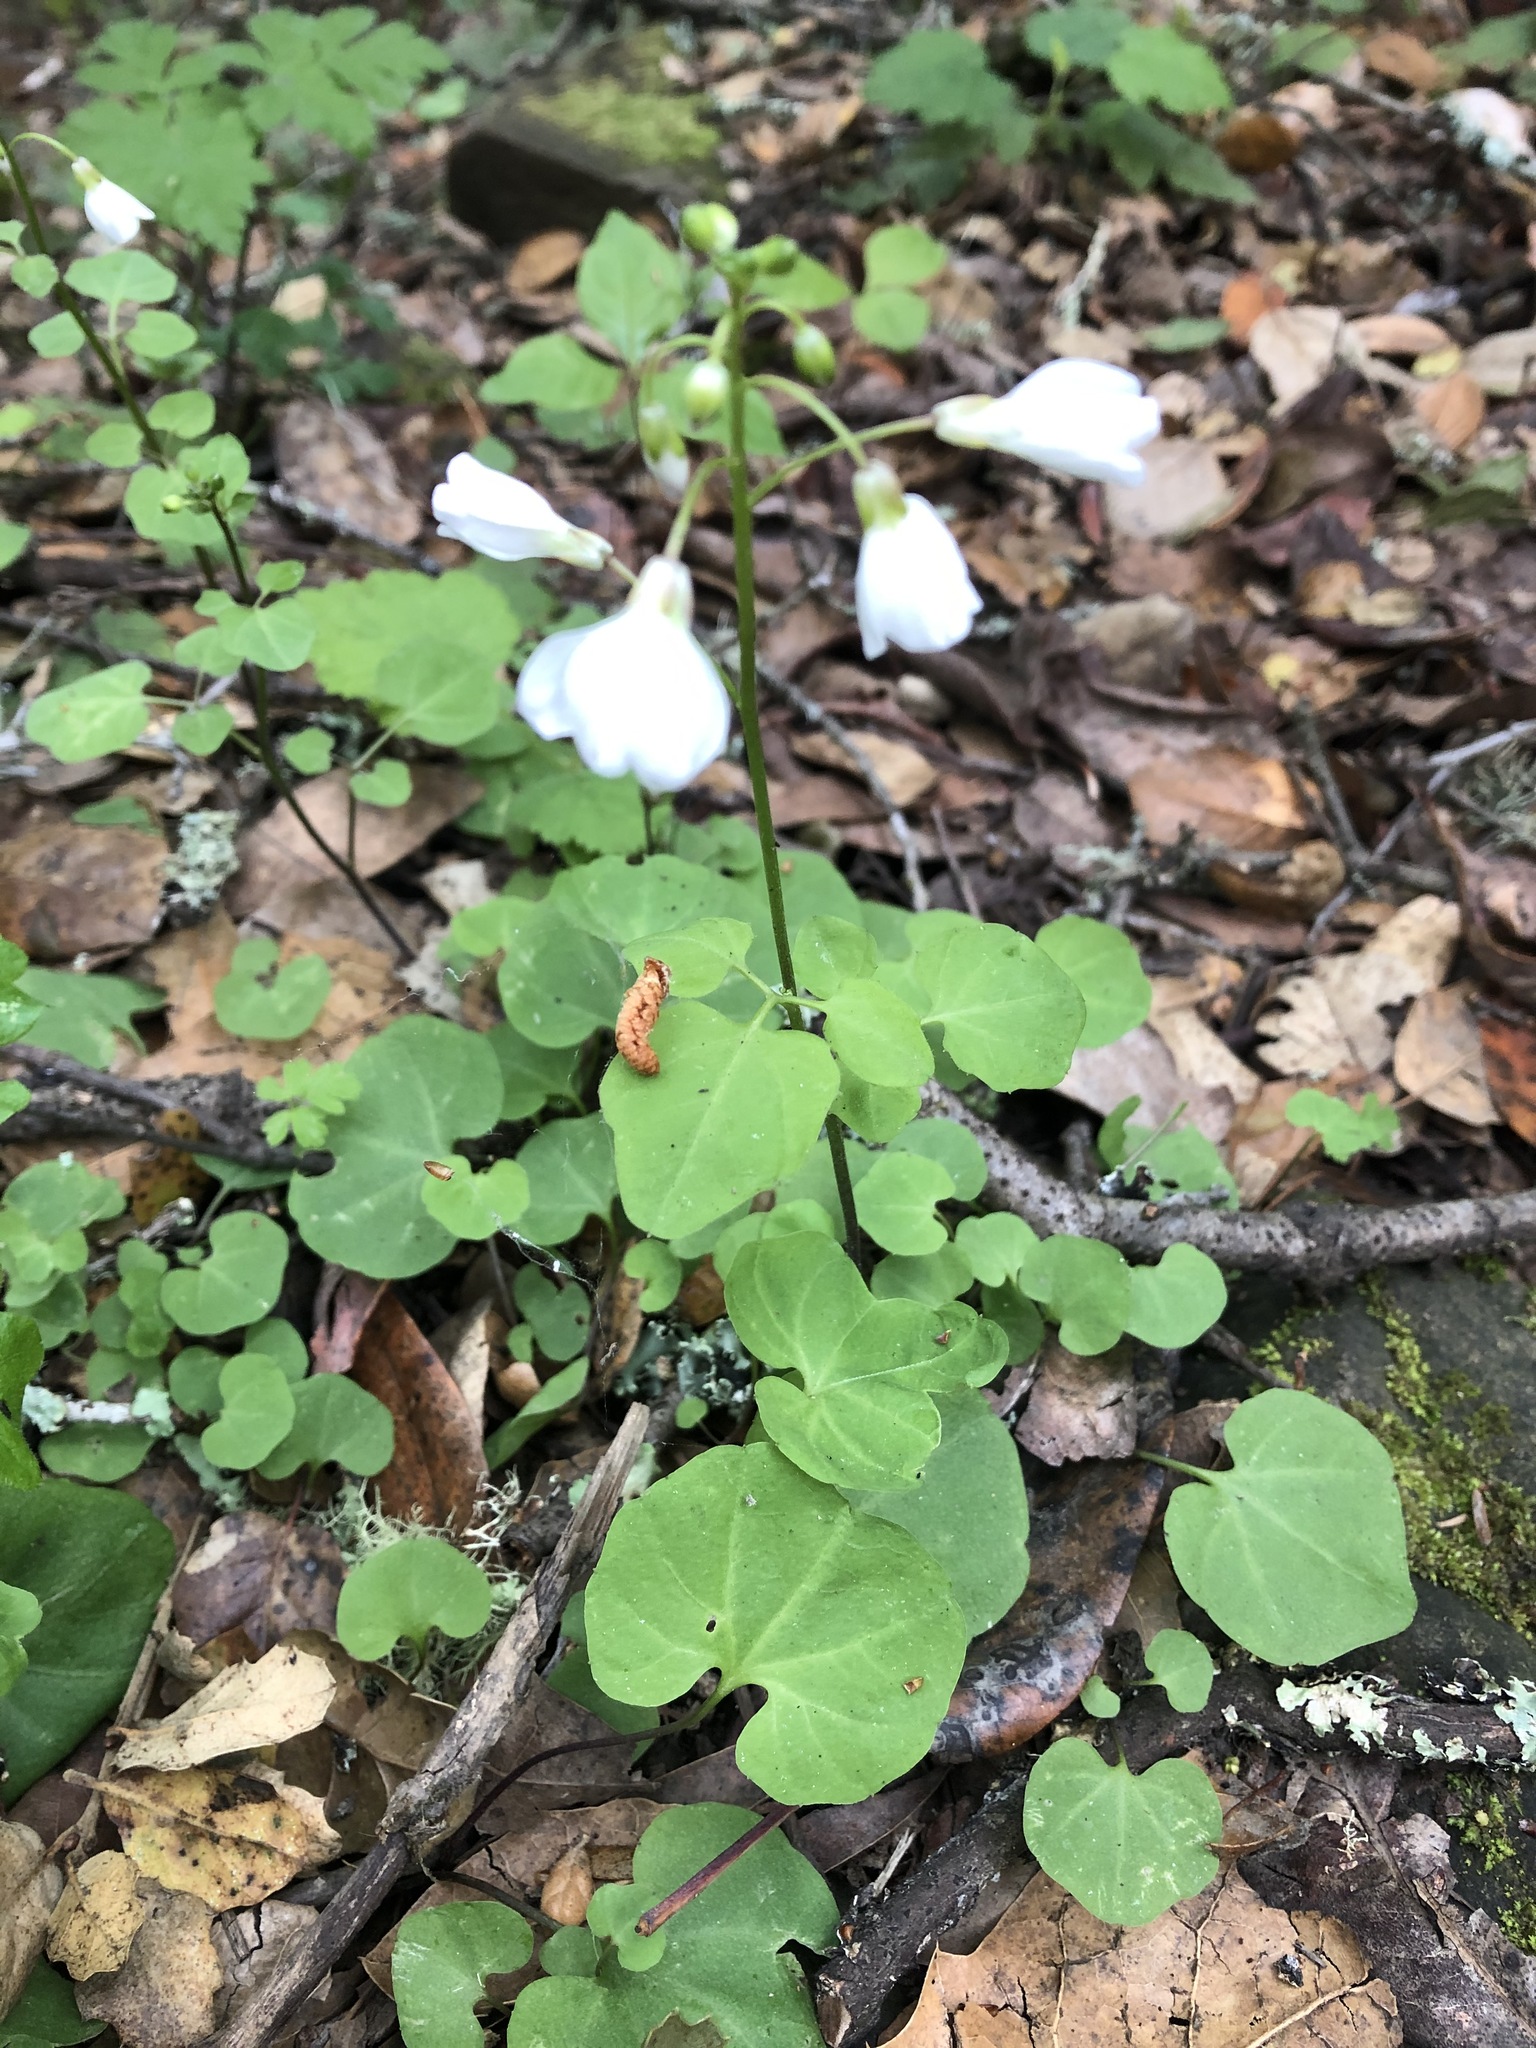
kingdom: Plantae
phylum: Tracheophyta
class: Magnoliopsida
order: Brassicales
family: Brassicaceae
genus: Cardamine
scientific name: Cardamine californica
